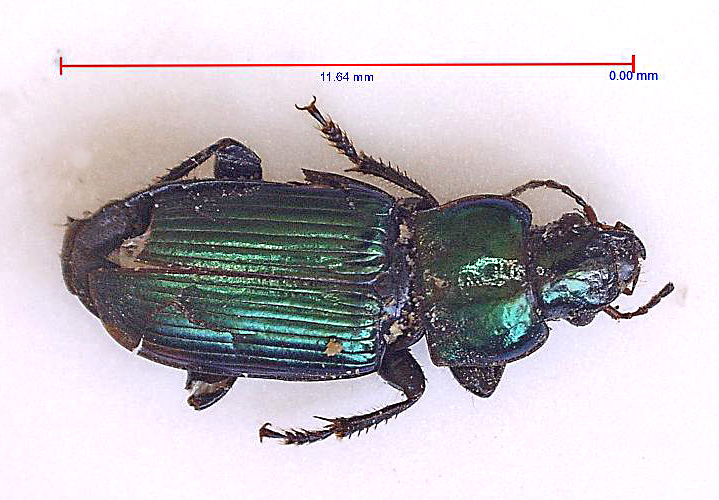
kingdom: Animalia
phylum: Arthropoda
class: Insecta
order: Coleoptera
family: Carabidae
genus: Harpalus
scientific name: Harpalus distinguendus
